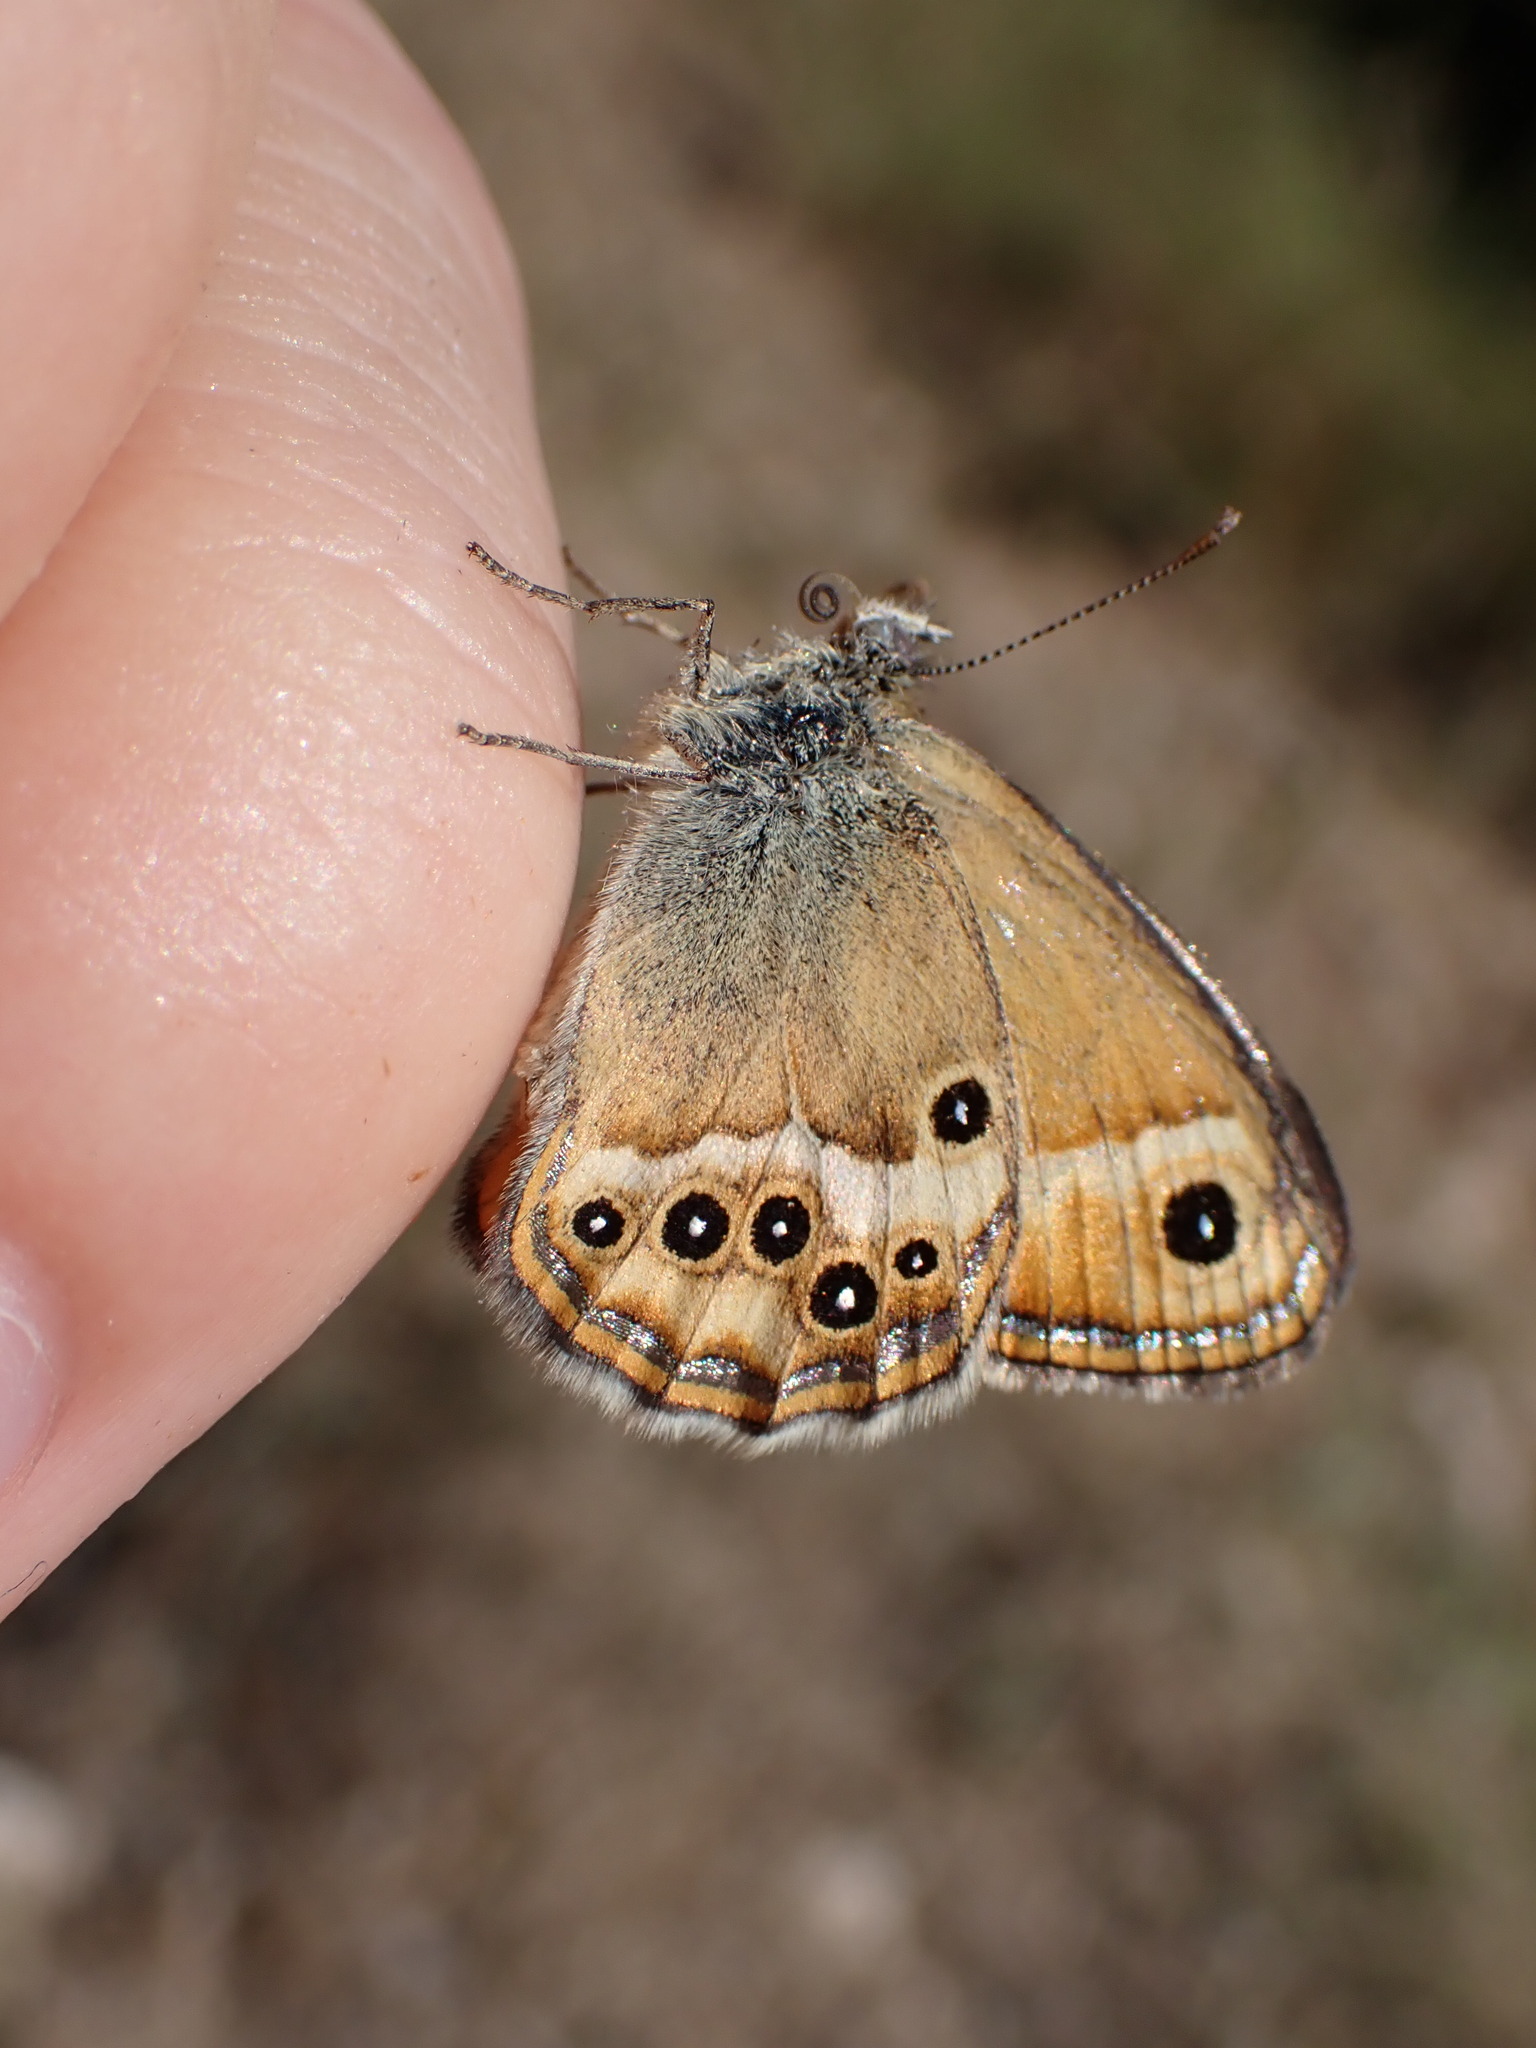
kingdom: Animalia
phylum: Arthropoda
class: Insecta
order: Lepidoptera
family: Nymphalidae
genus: Coenonympha
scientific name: Coenonympha dorus
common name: Dusky heath
